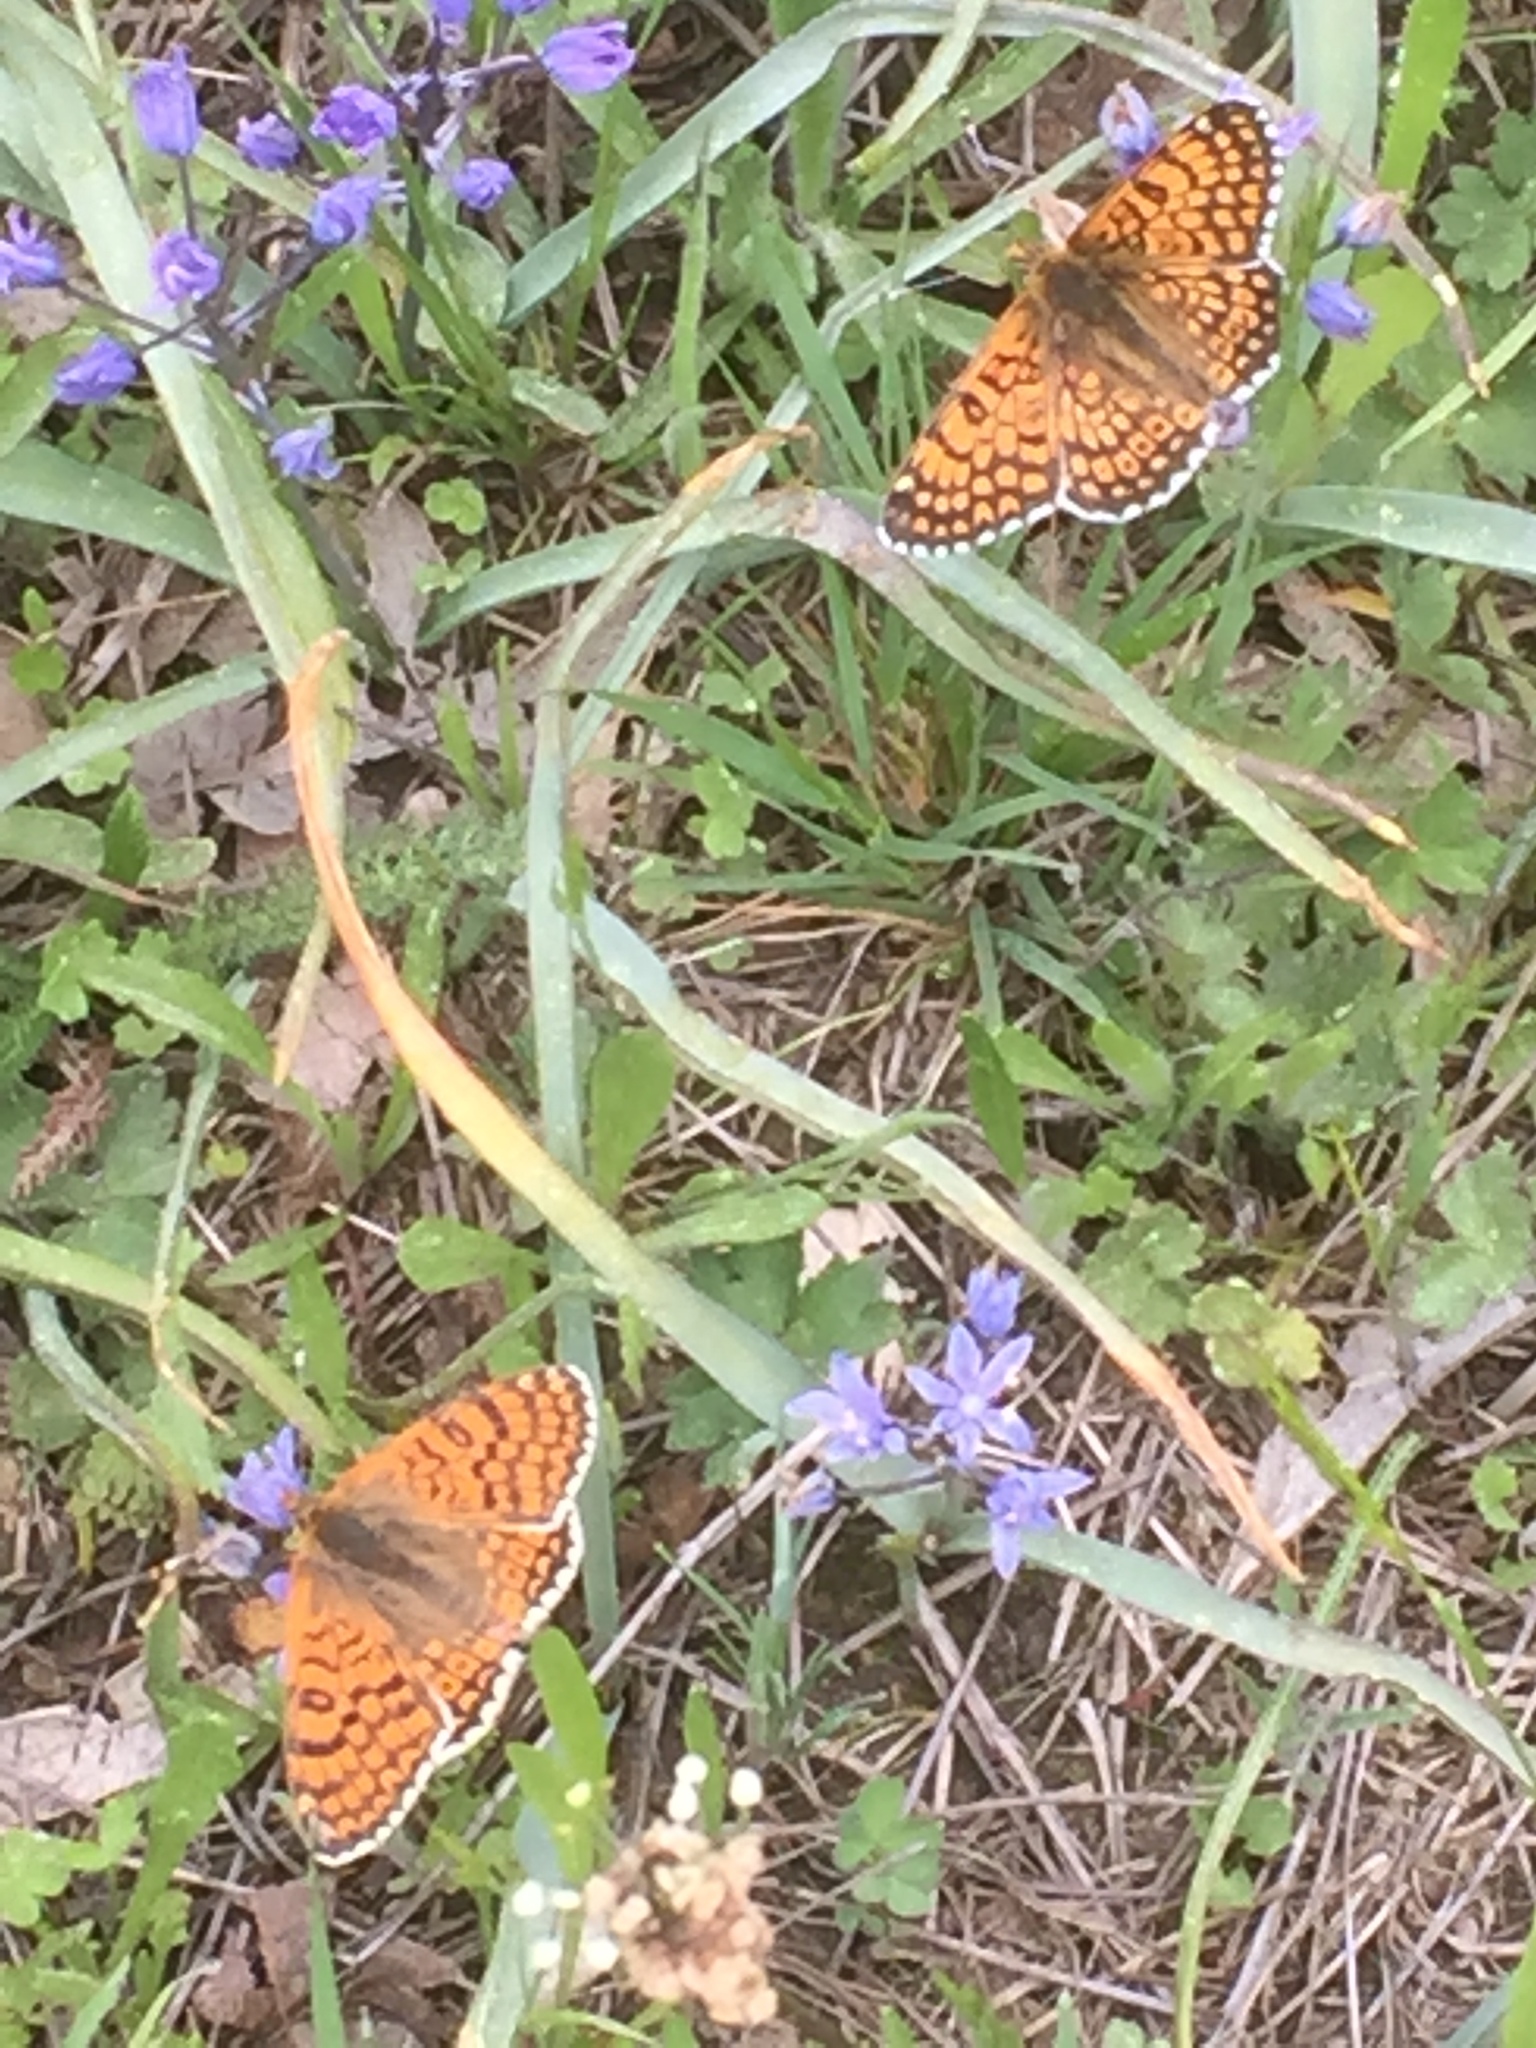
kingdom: Animalia
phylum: Arthropoda
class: Insecta
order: Lepidoptera
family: Nymphalidae
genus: Melitaea
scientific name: Melitaea cinxia
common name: Glanville fritillary
